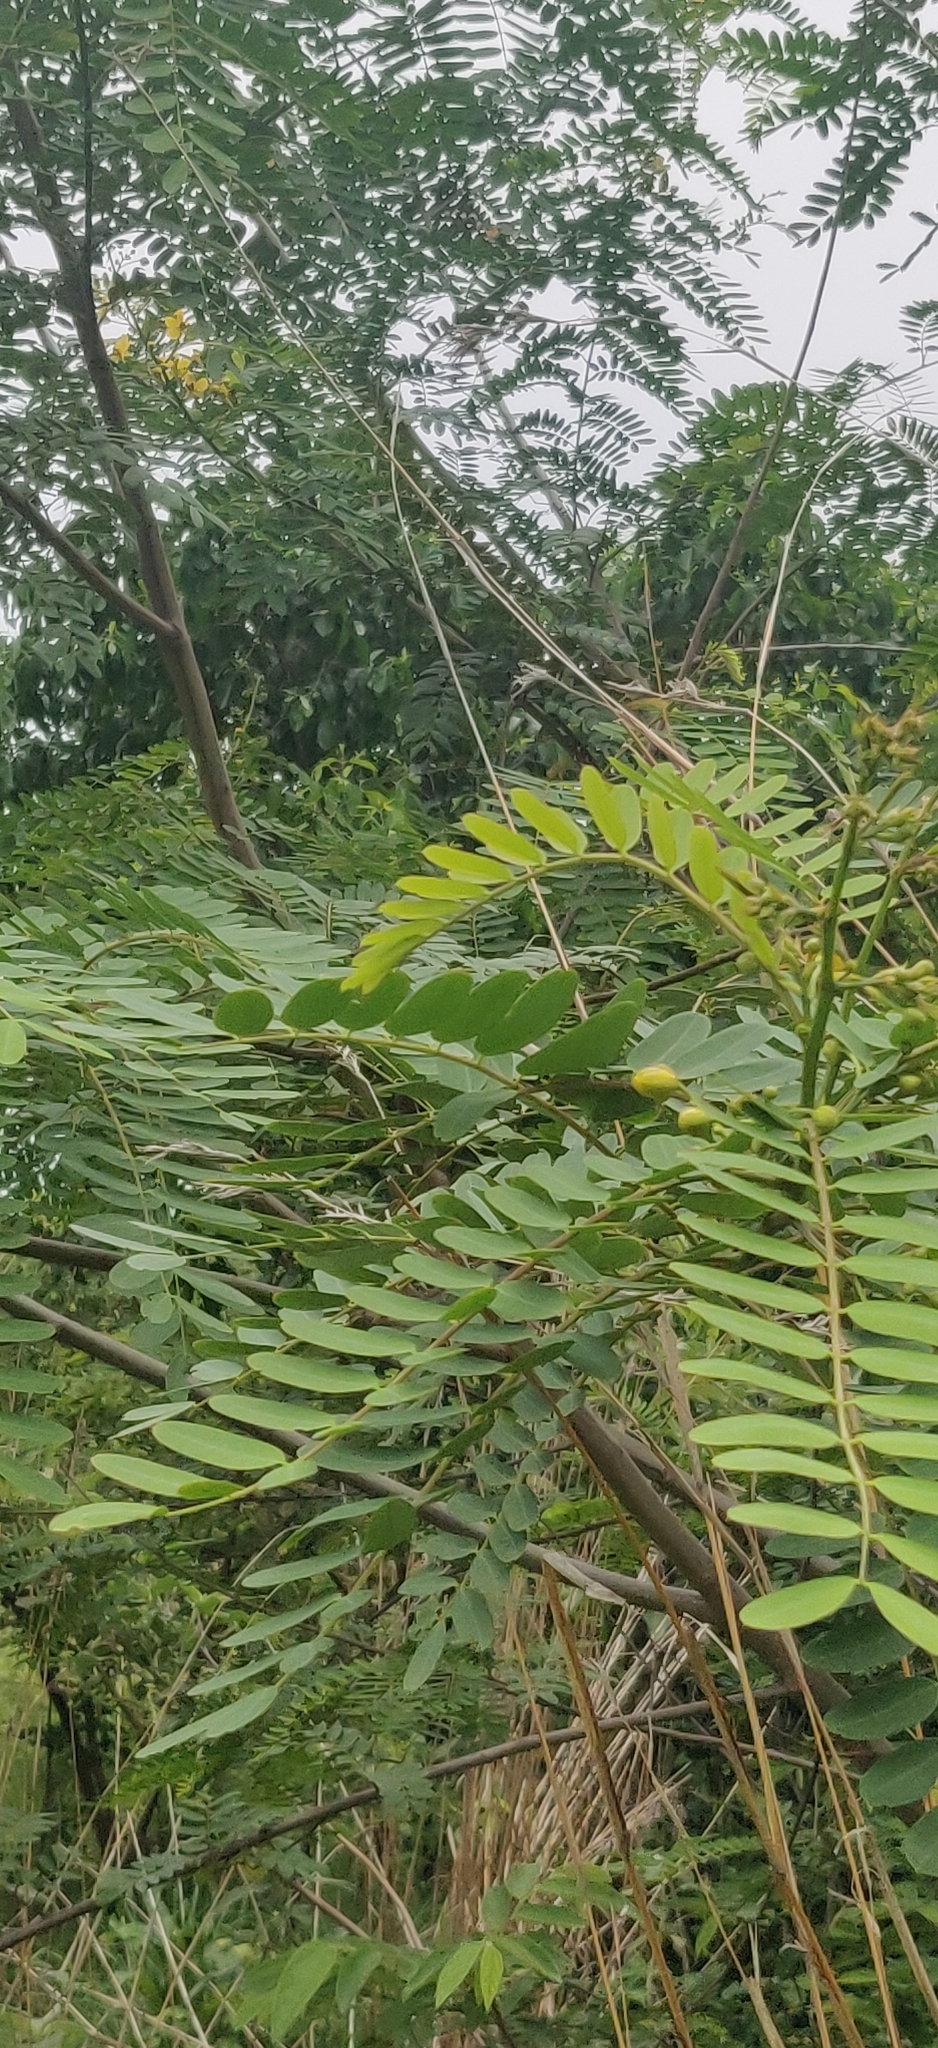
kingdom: Plantae
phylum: Tracheophyta
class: Magnoliopsida
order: Fabales
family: Fabaceae
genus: Senna
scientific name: Senna siamea
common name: Siamese cassia
